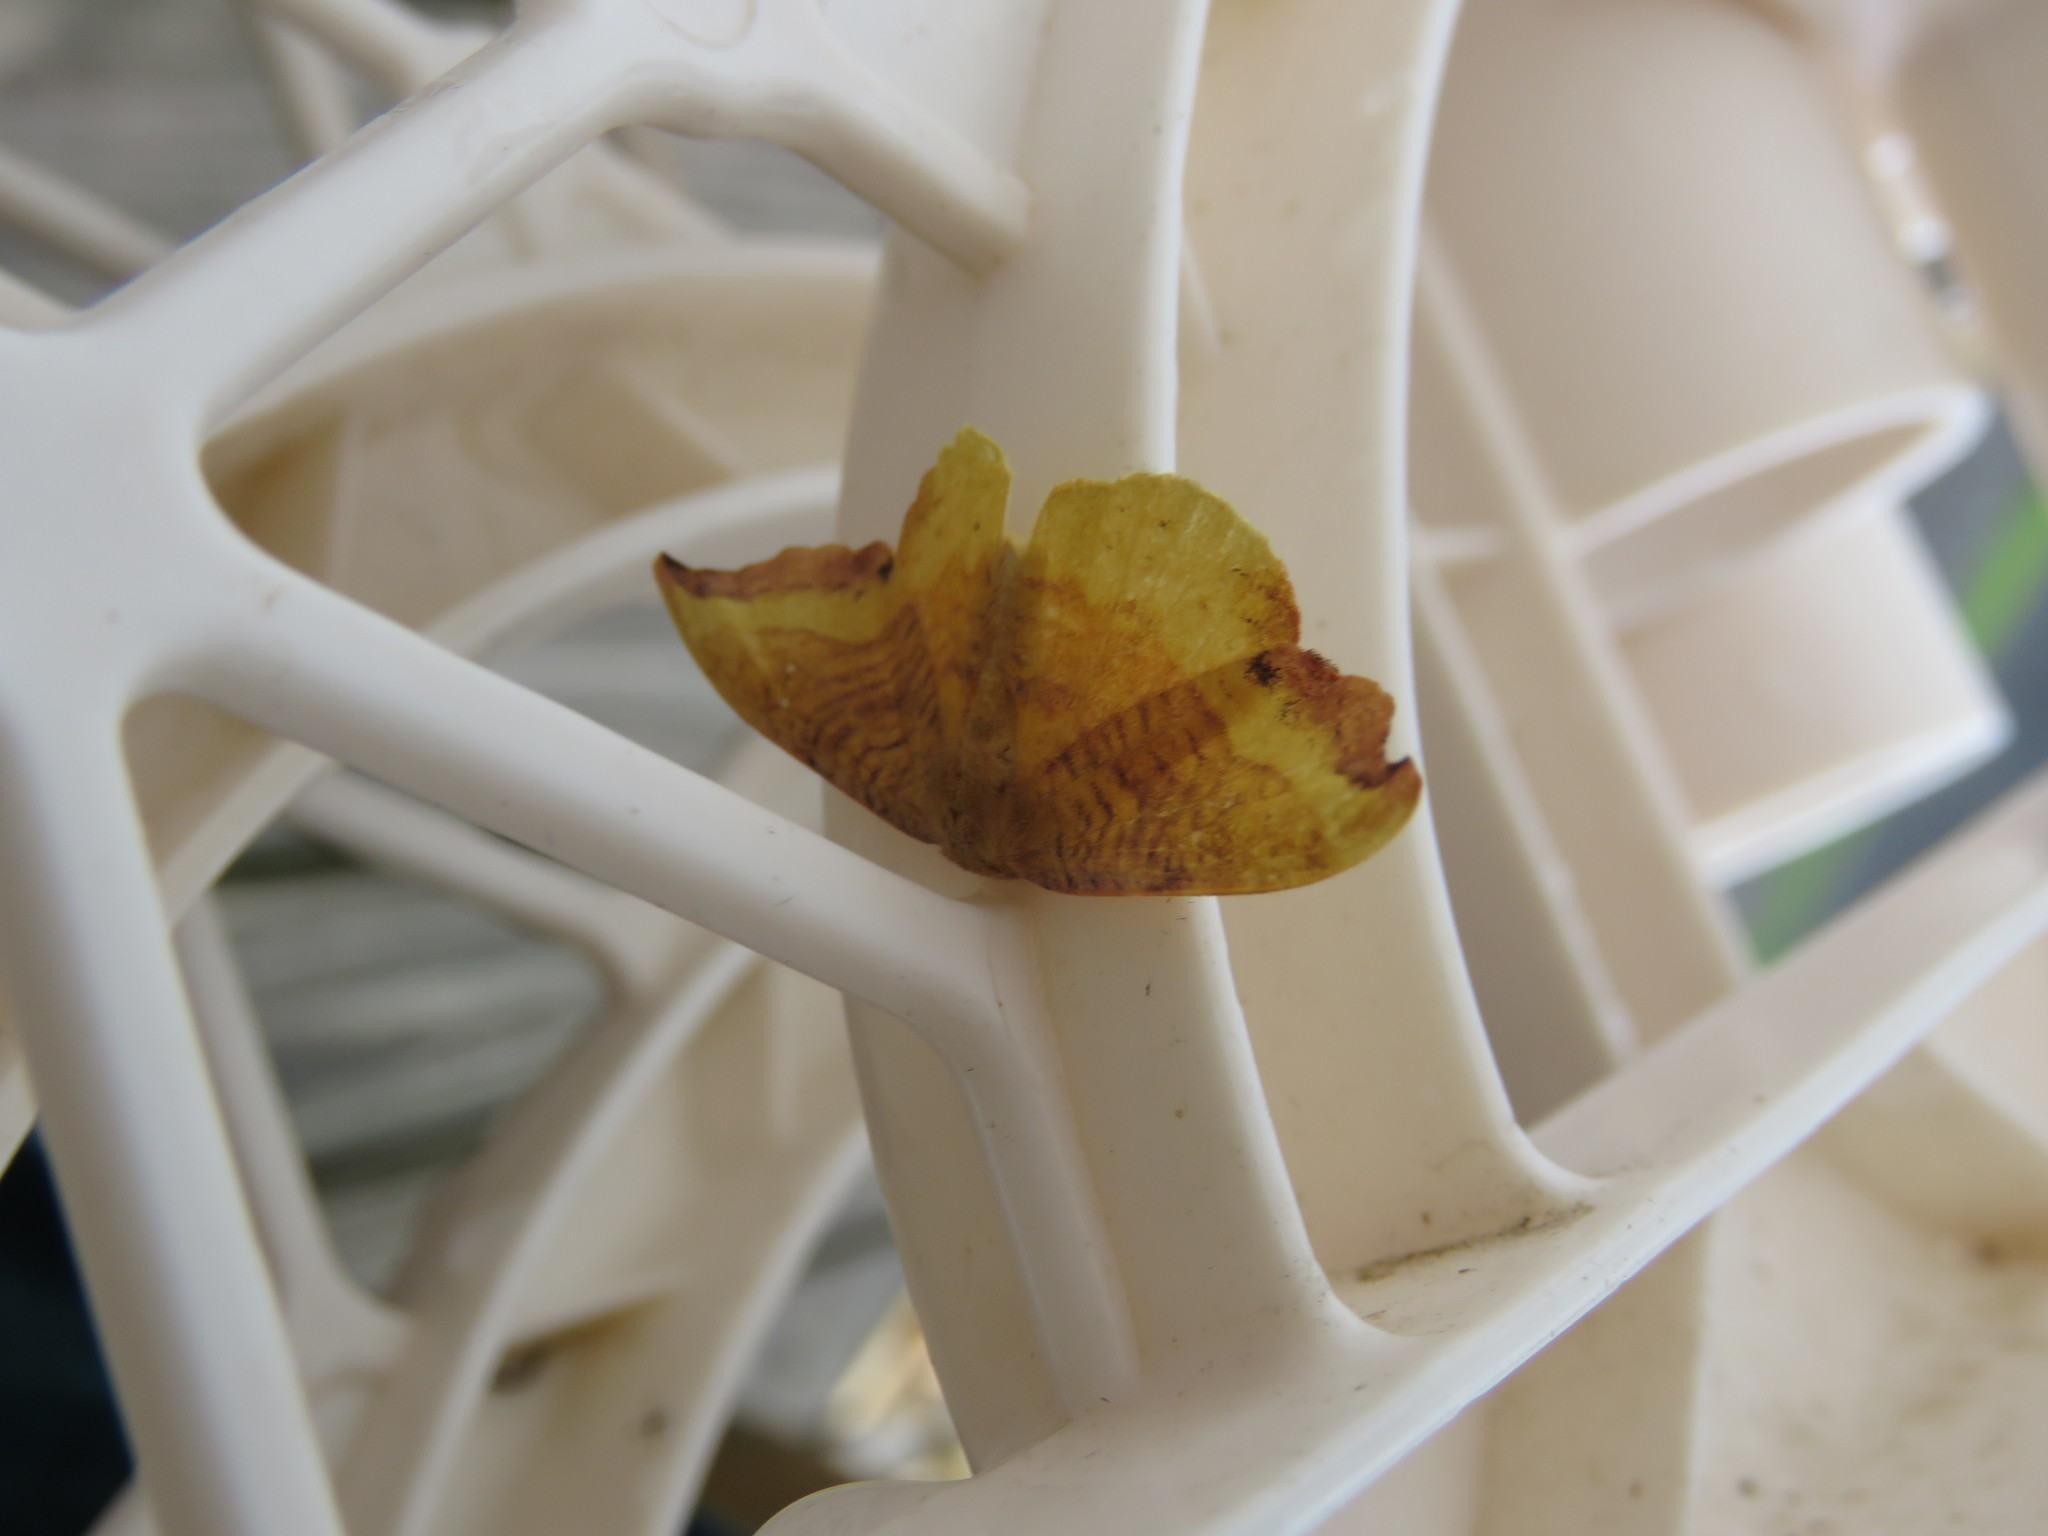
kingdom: Animalia
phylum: Arthropoda
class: Insecta
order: Lepidoptera
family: Drepanidae
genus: Oreta
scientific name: Oreta rosea
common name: Rose hooktip
